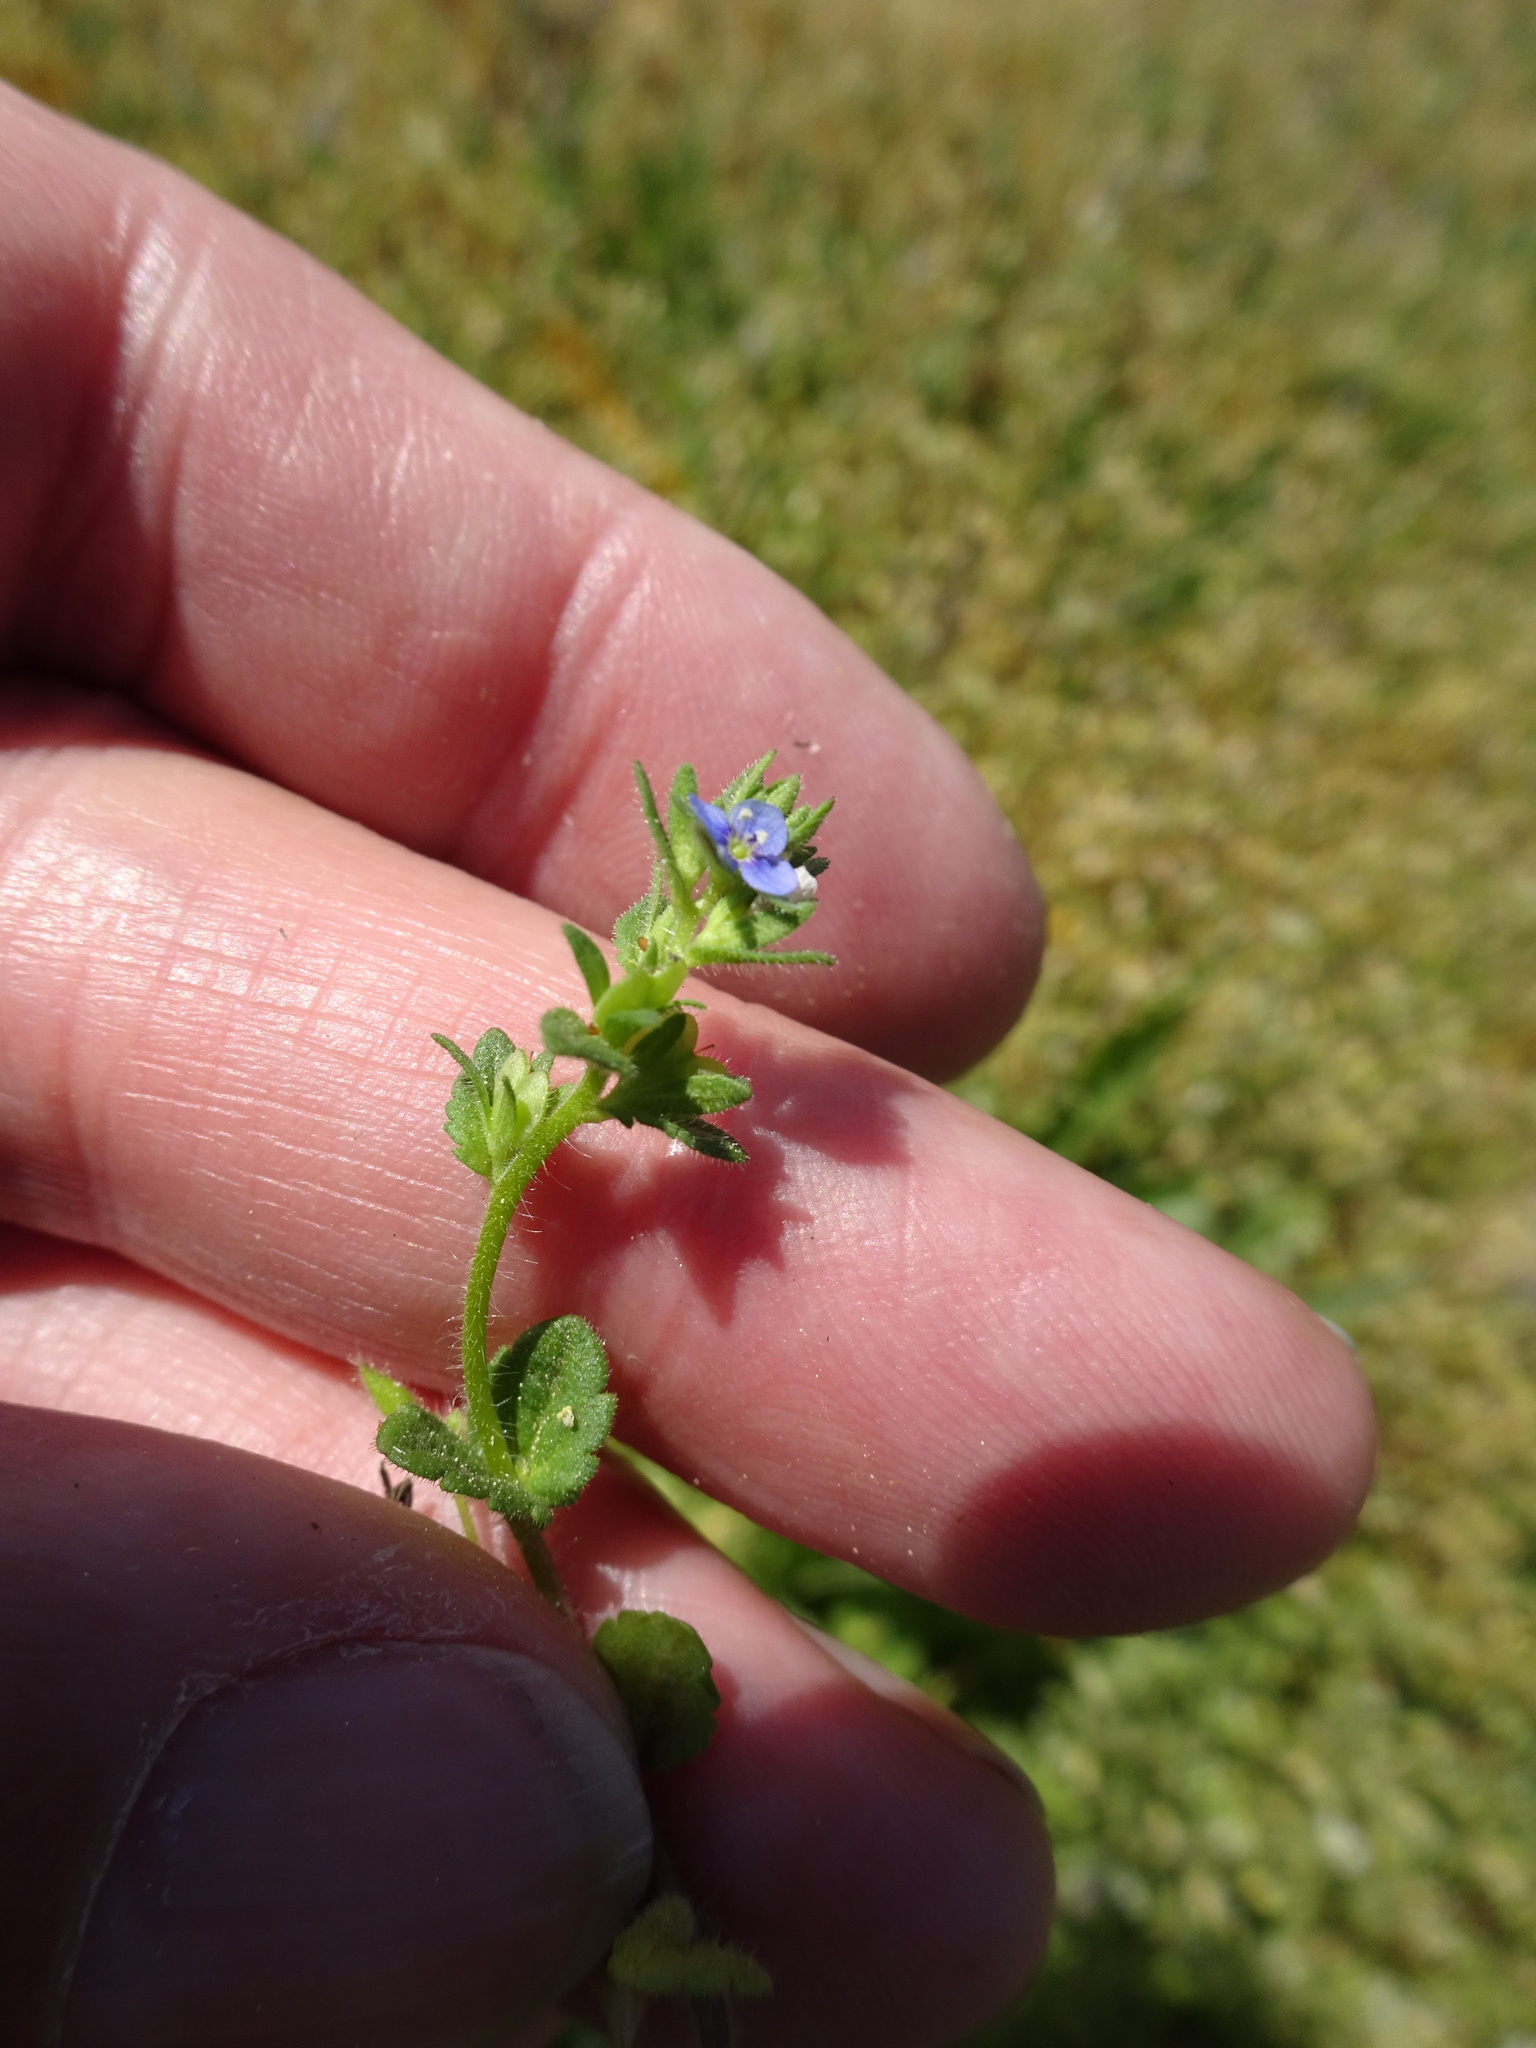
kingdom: Plantae
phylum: Tracheophyta
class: Magnoliopsida
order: Lamiales
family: Plantaginaceae
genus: Veronica
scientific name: Veronica arvensis
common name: Corn speedwell
